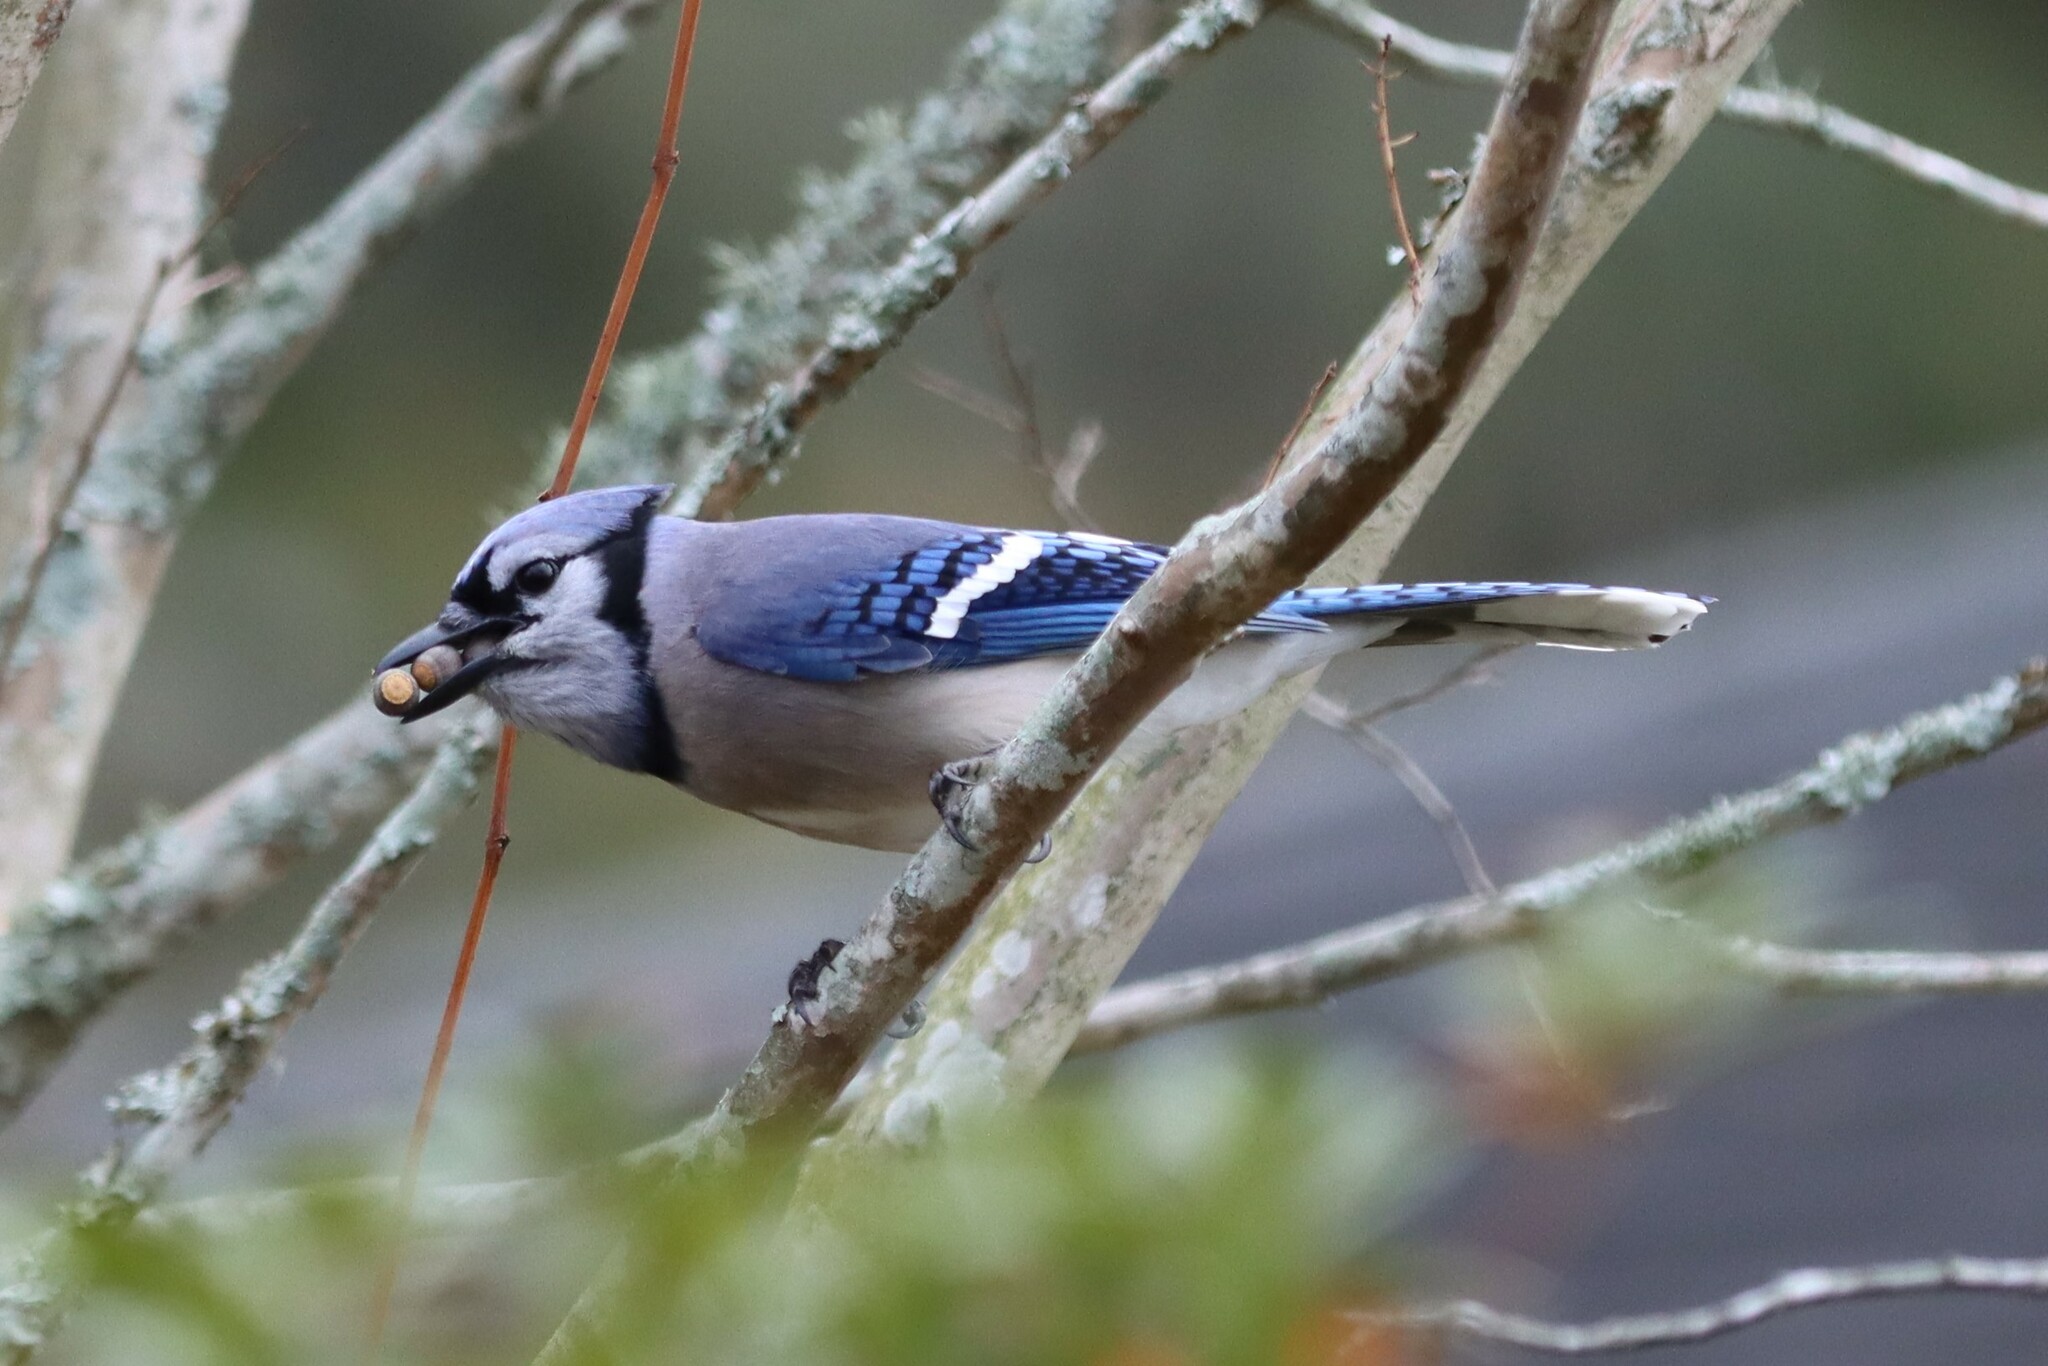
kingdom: Animalia
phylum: Chordata
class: Aves
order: Passeriformes
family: Corvidae
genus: Cyanocitta
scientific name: Cyanocitta cristata
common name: Blue jay
